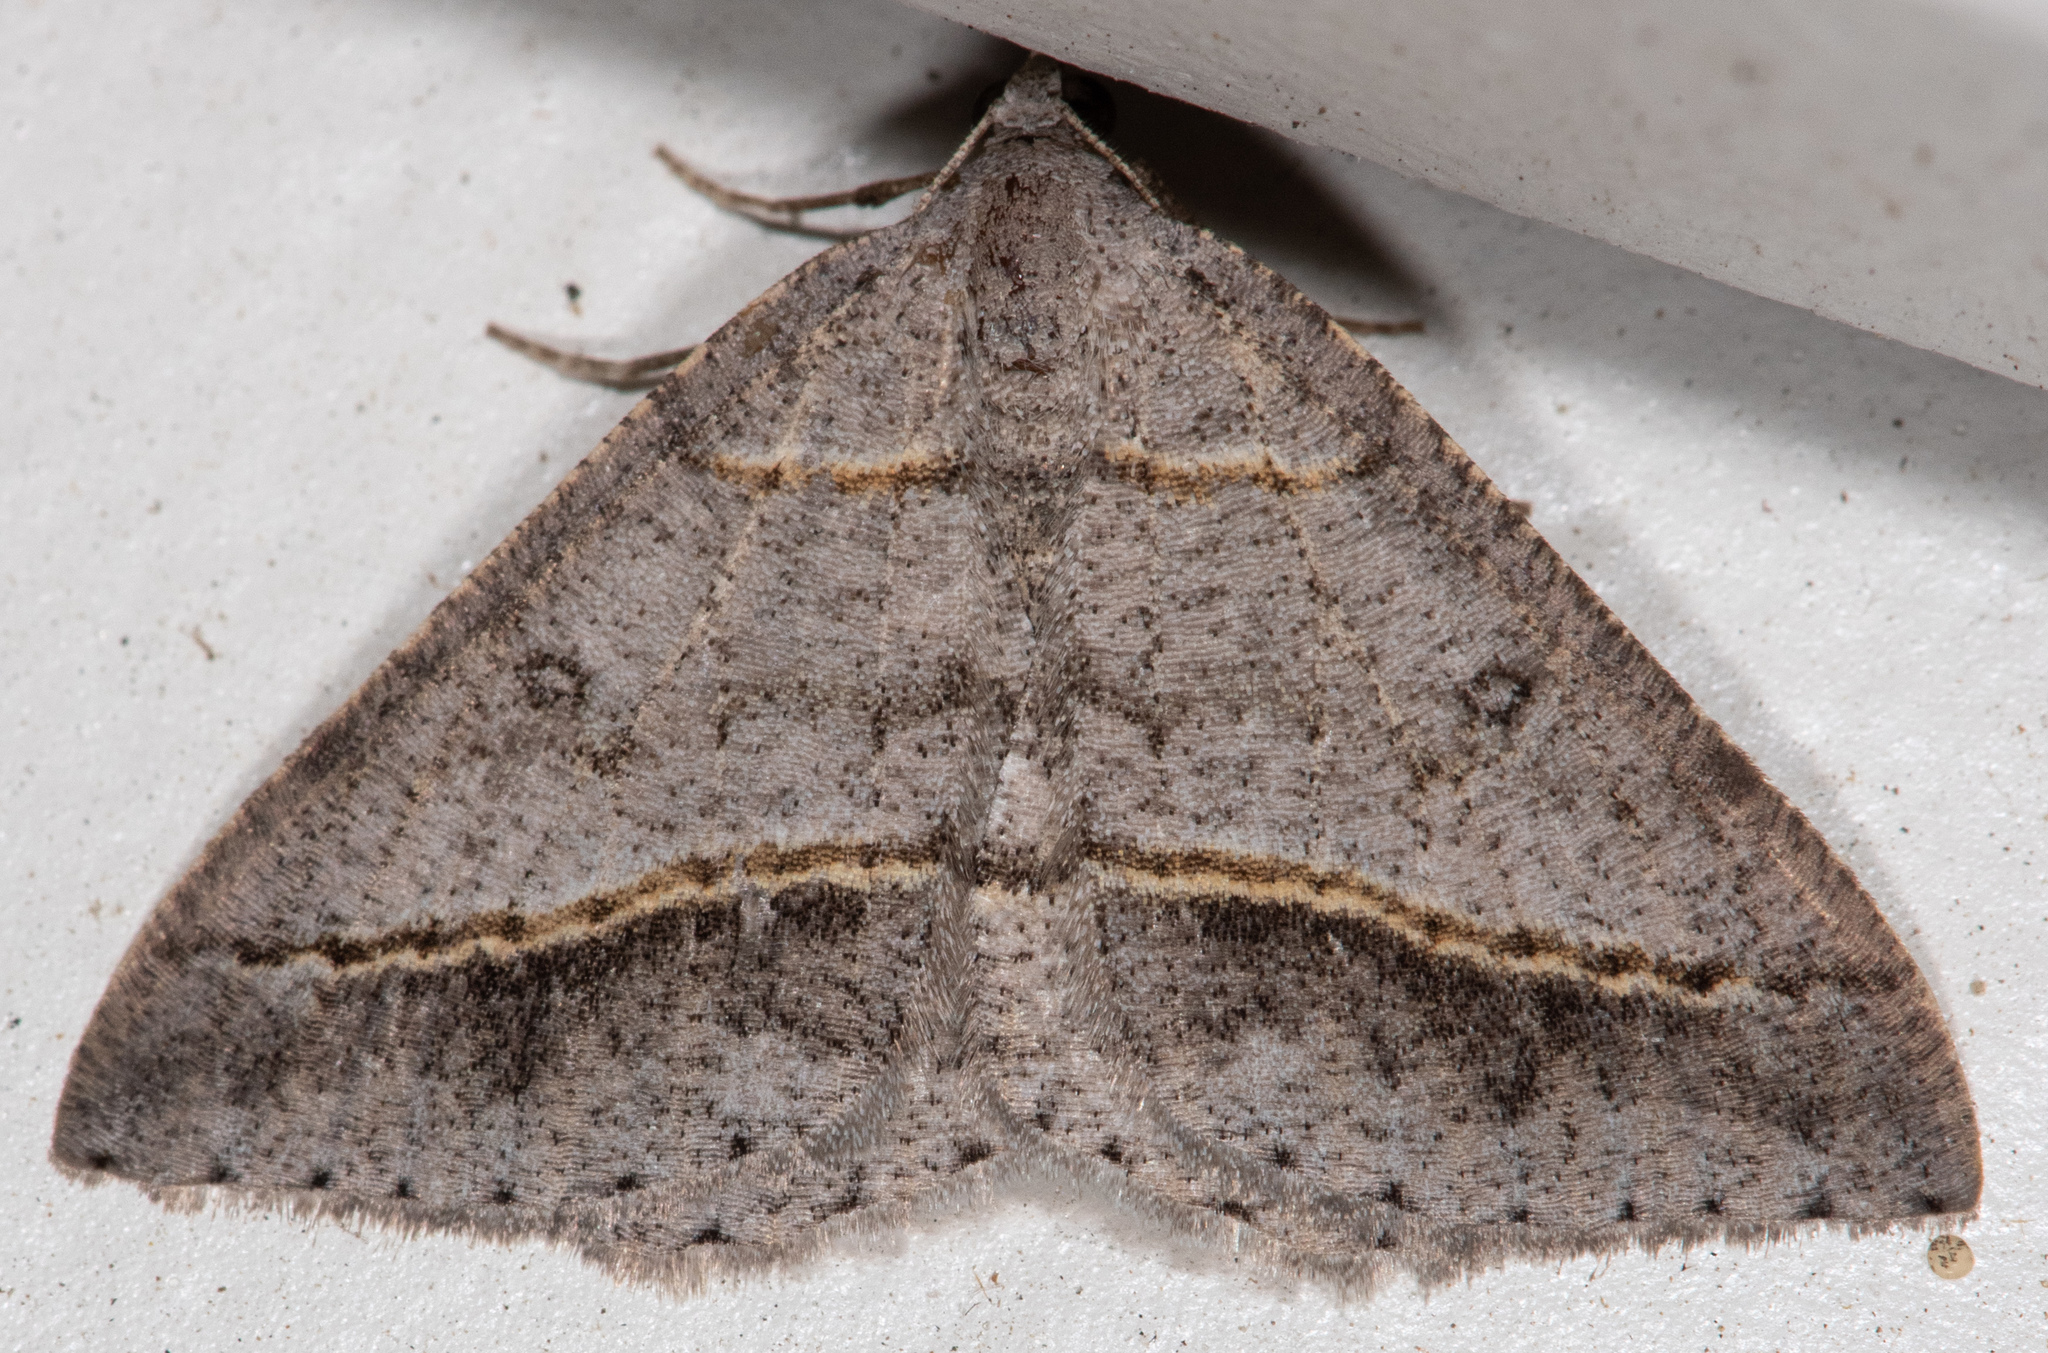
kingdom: Animalia
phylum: Arthropoda
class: Insecta
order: Lepidoptera
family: Geometridae
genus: Digrammia
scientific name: Digrammia neptaria
